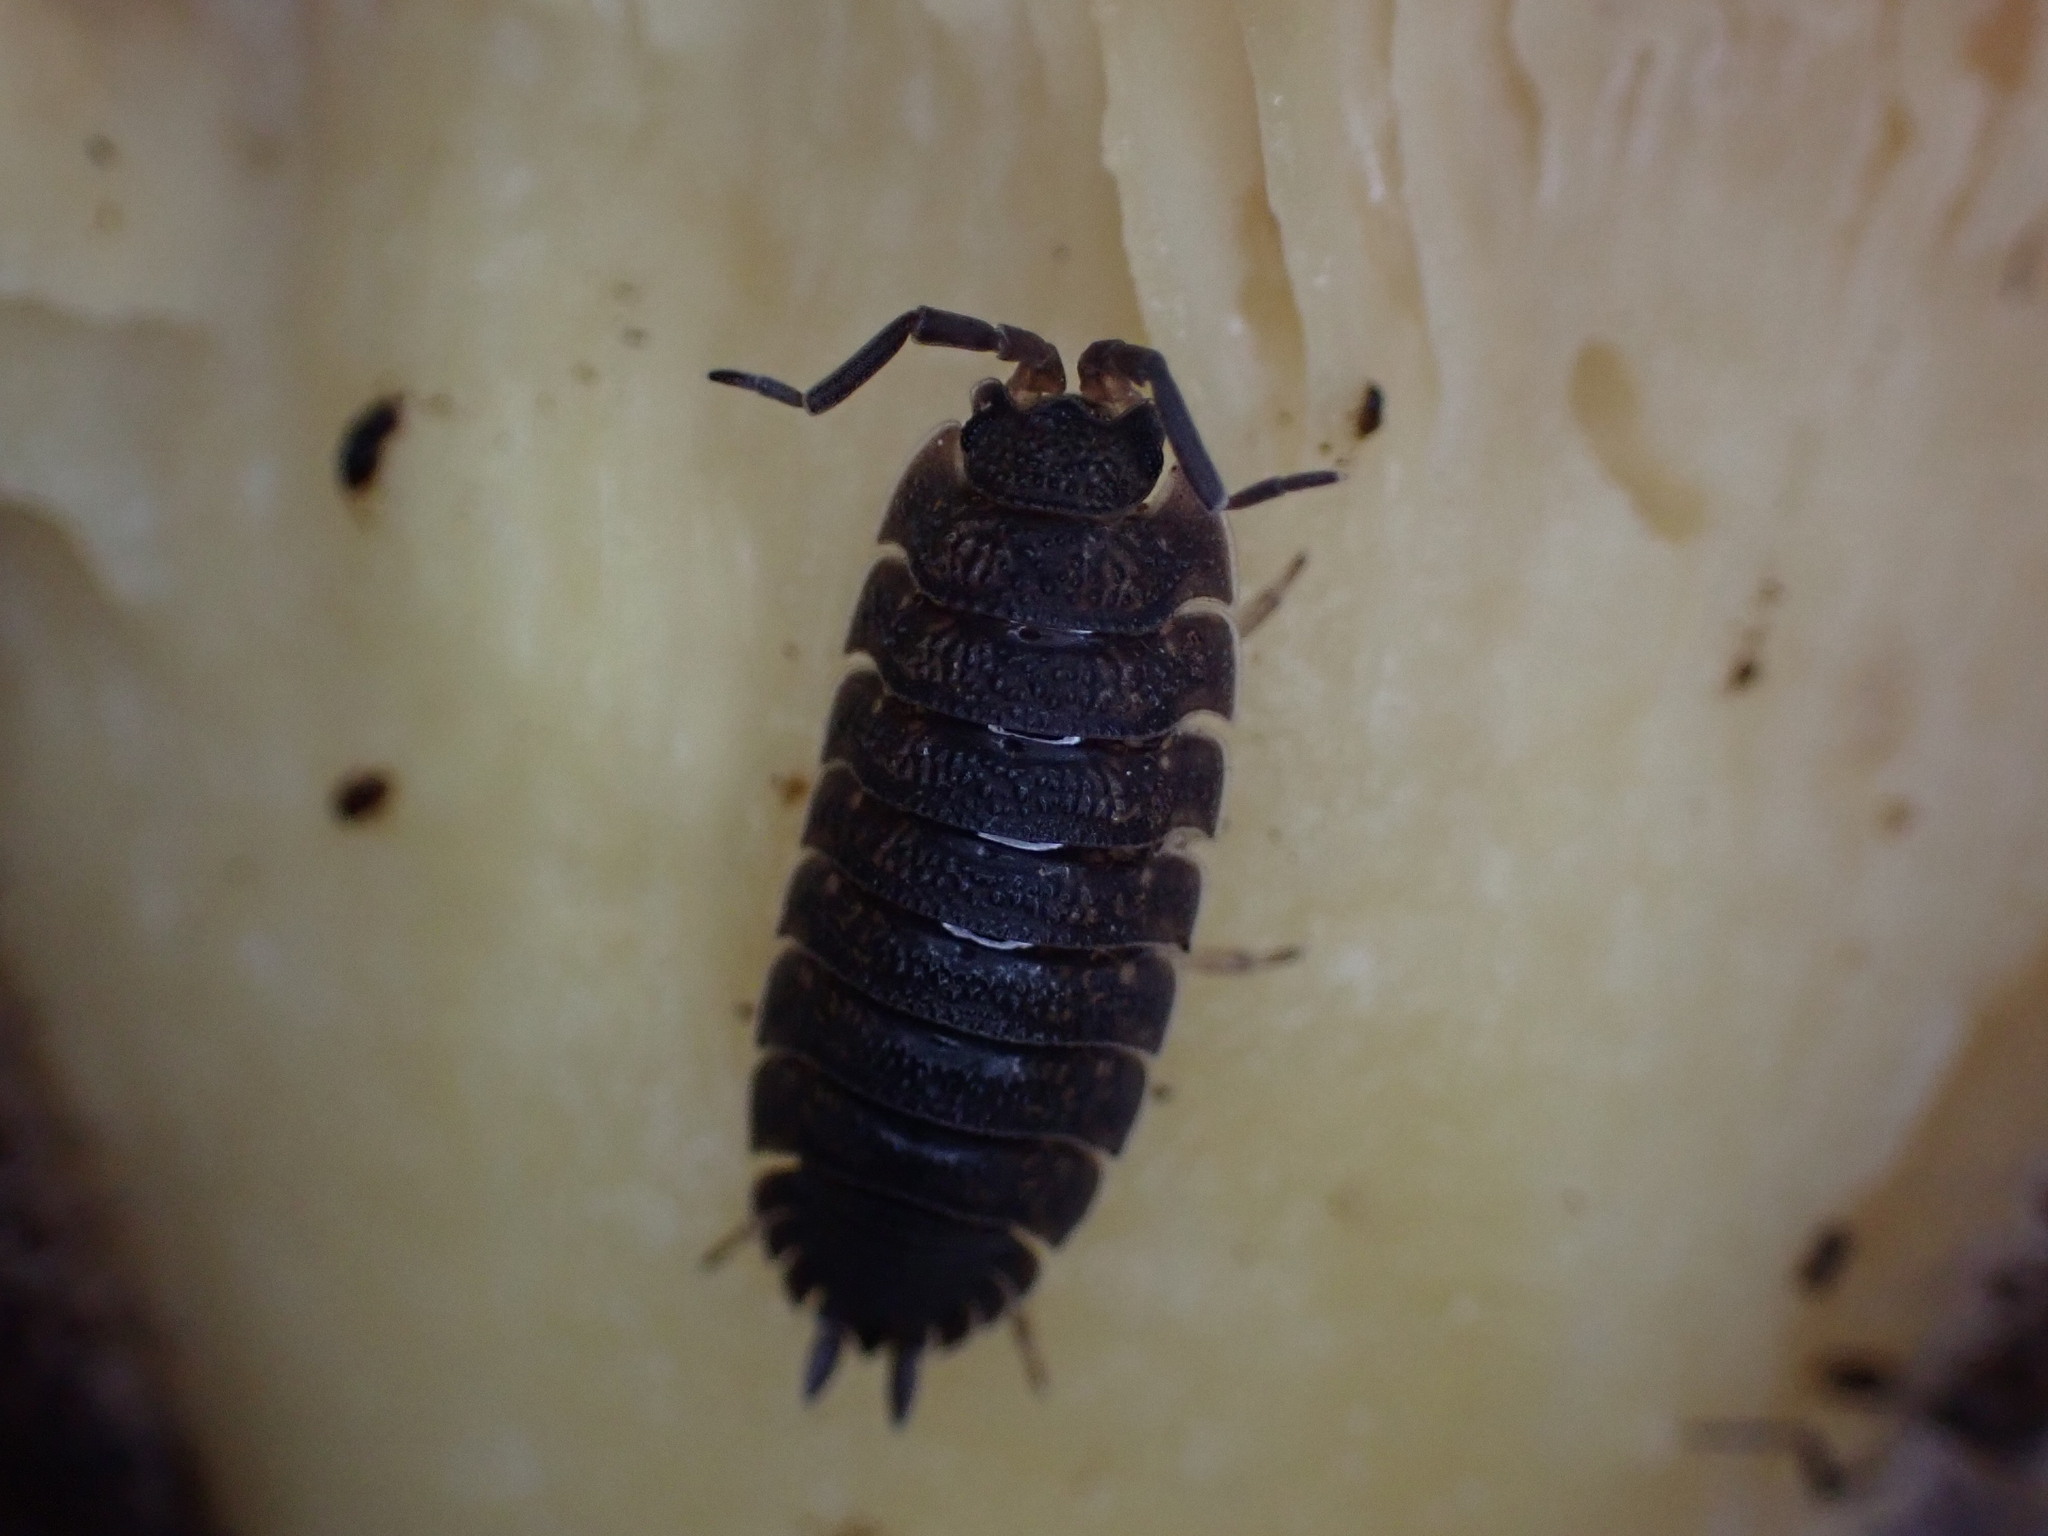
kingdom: Animalia
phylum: Arthropoda
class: Malacostraca
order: Isopoda
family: Porcellionidae
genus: Porcellio
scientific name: Porcellio scaber
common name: Common rough woodlouse
